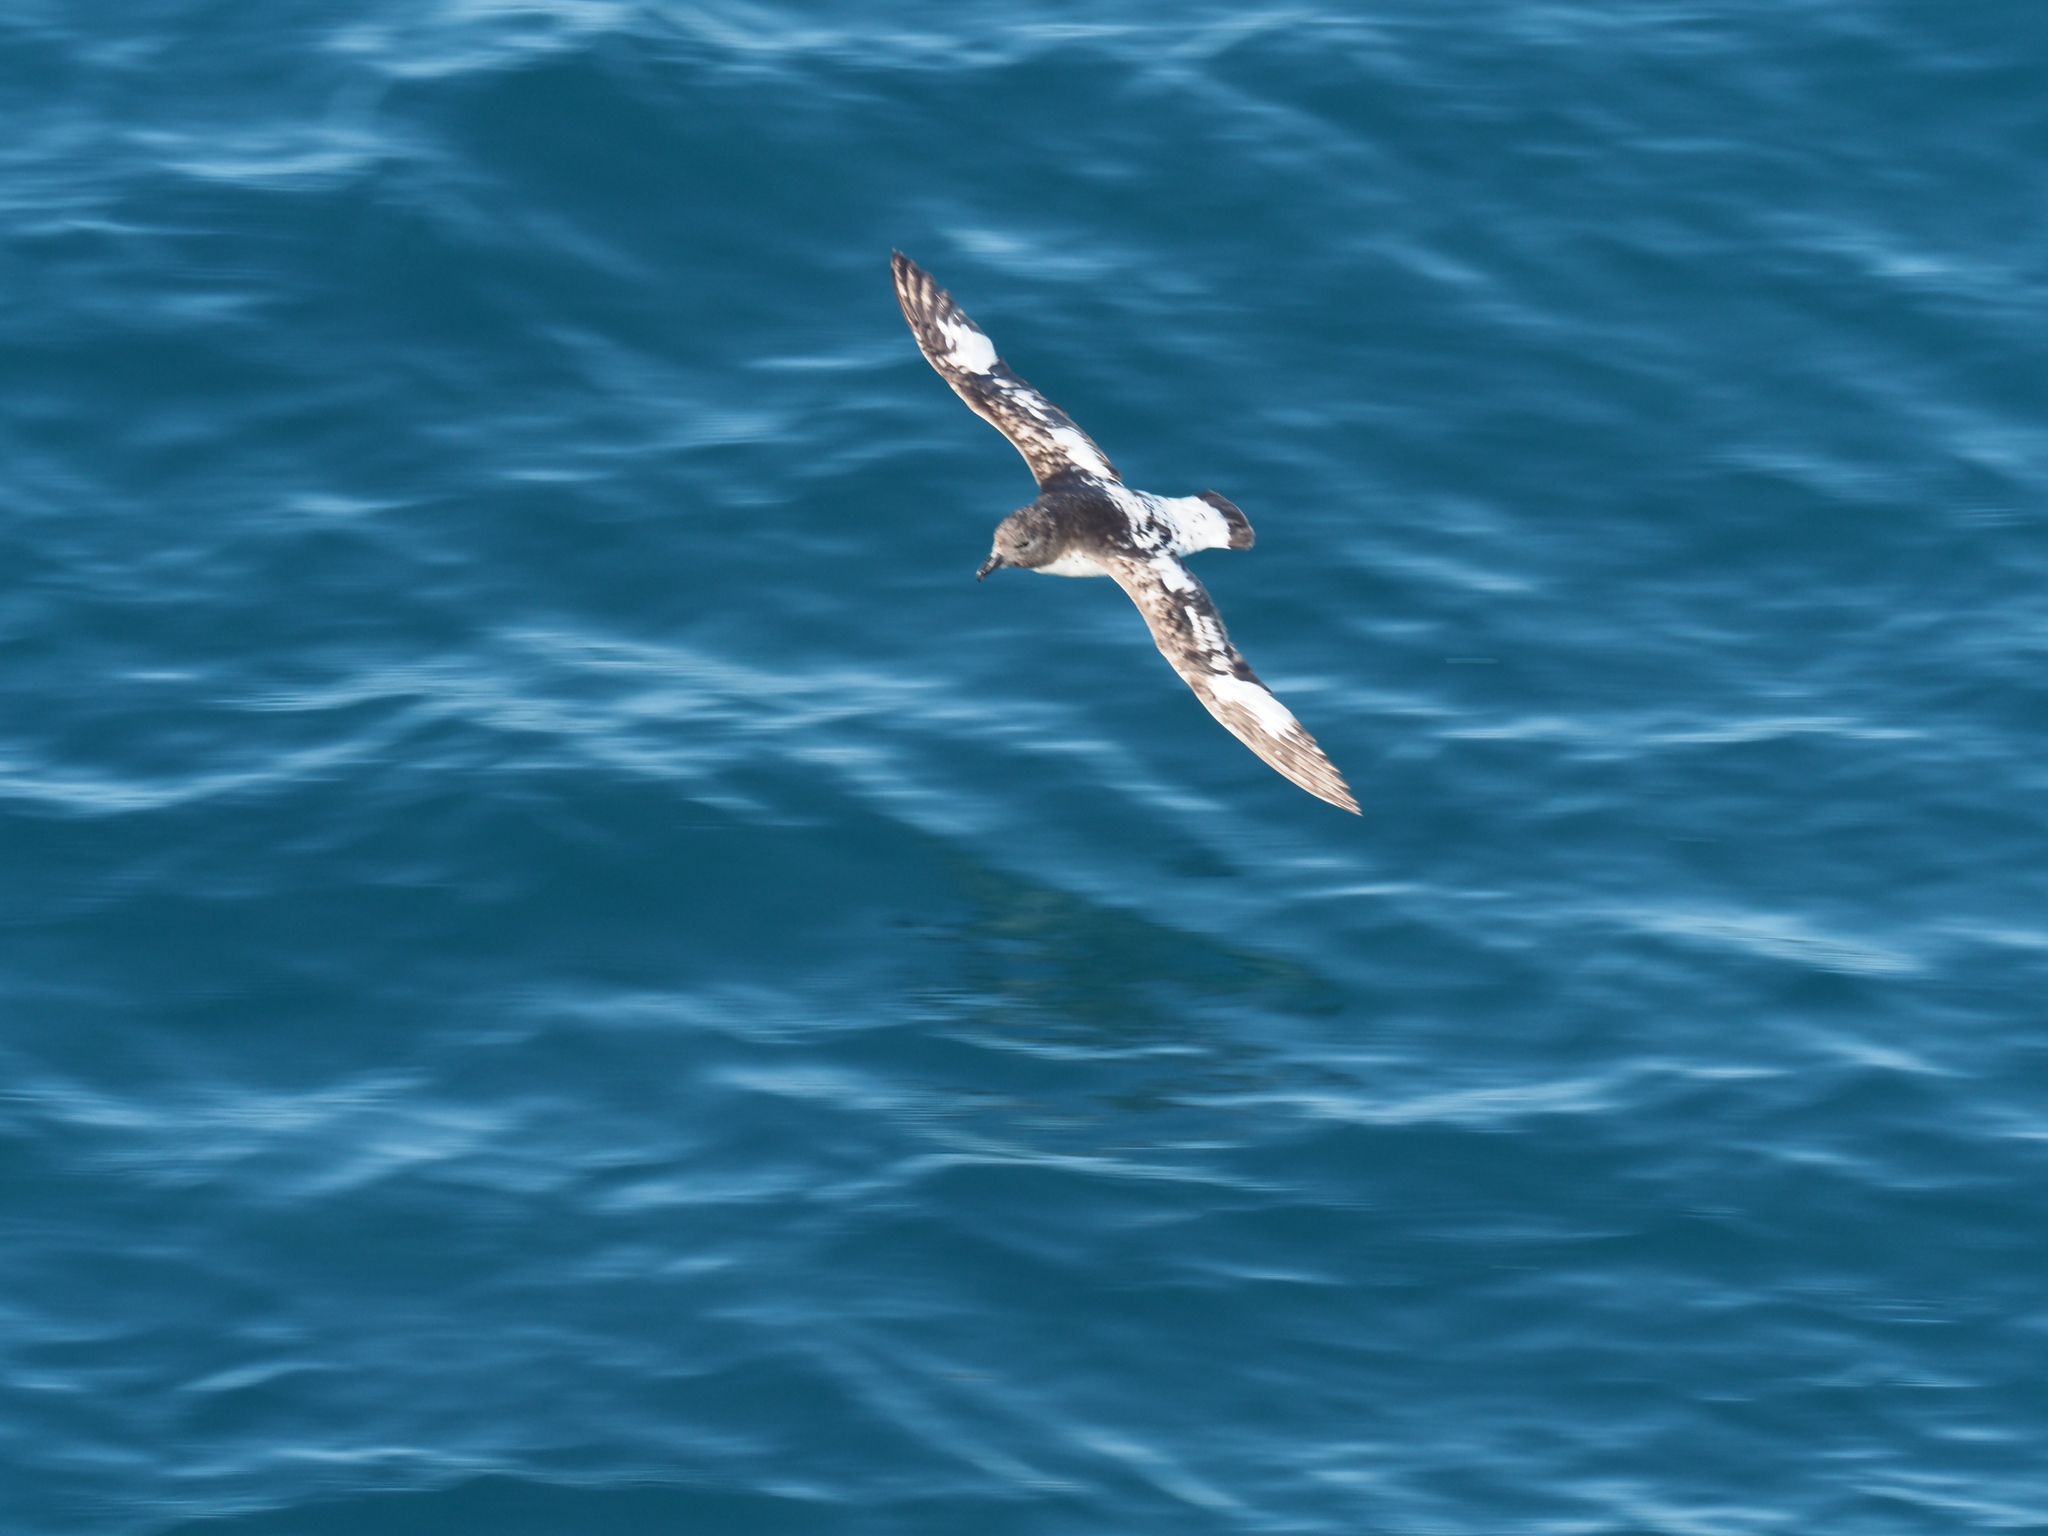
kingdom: Animalia
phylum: Chordata
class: Aves
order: Procellariiformes
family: Procellariidae
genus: Daption
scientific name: Daption capense
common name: Cape petrel
